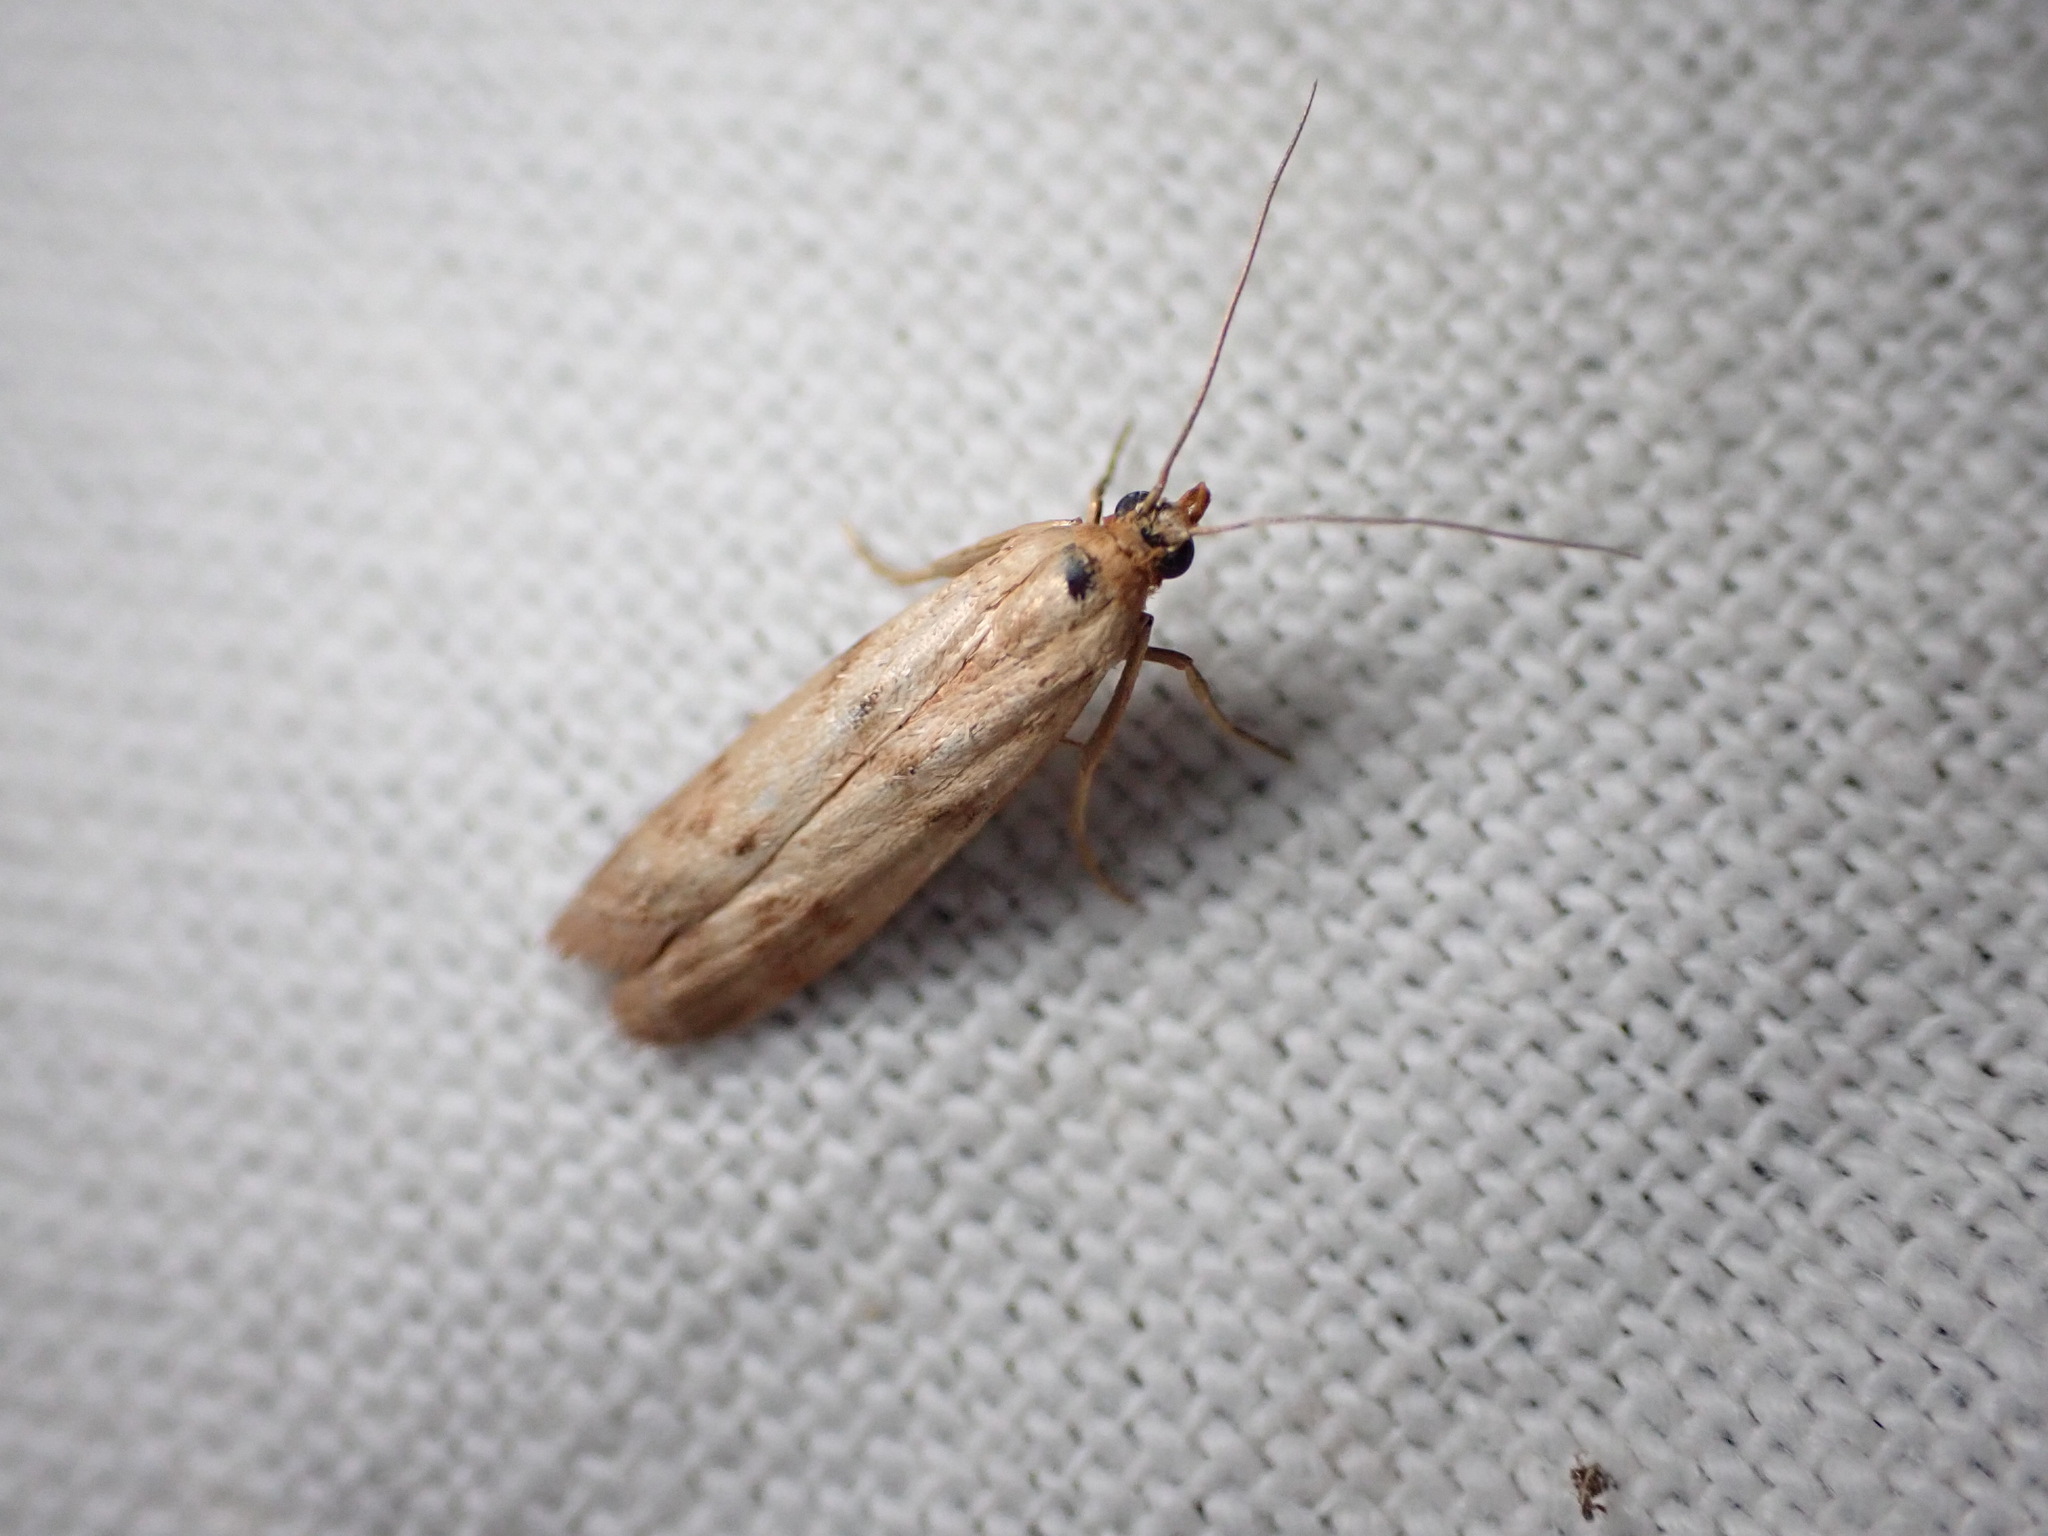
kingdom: Animalia
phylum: Arthropoda
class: Insecta
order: Lepidoptera
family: Pyralidae
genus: Homoeosoma
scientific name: Homoeosoma sinuella
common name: Twin-barred knot-horn
